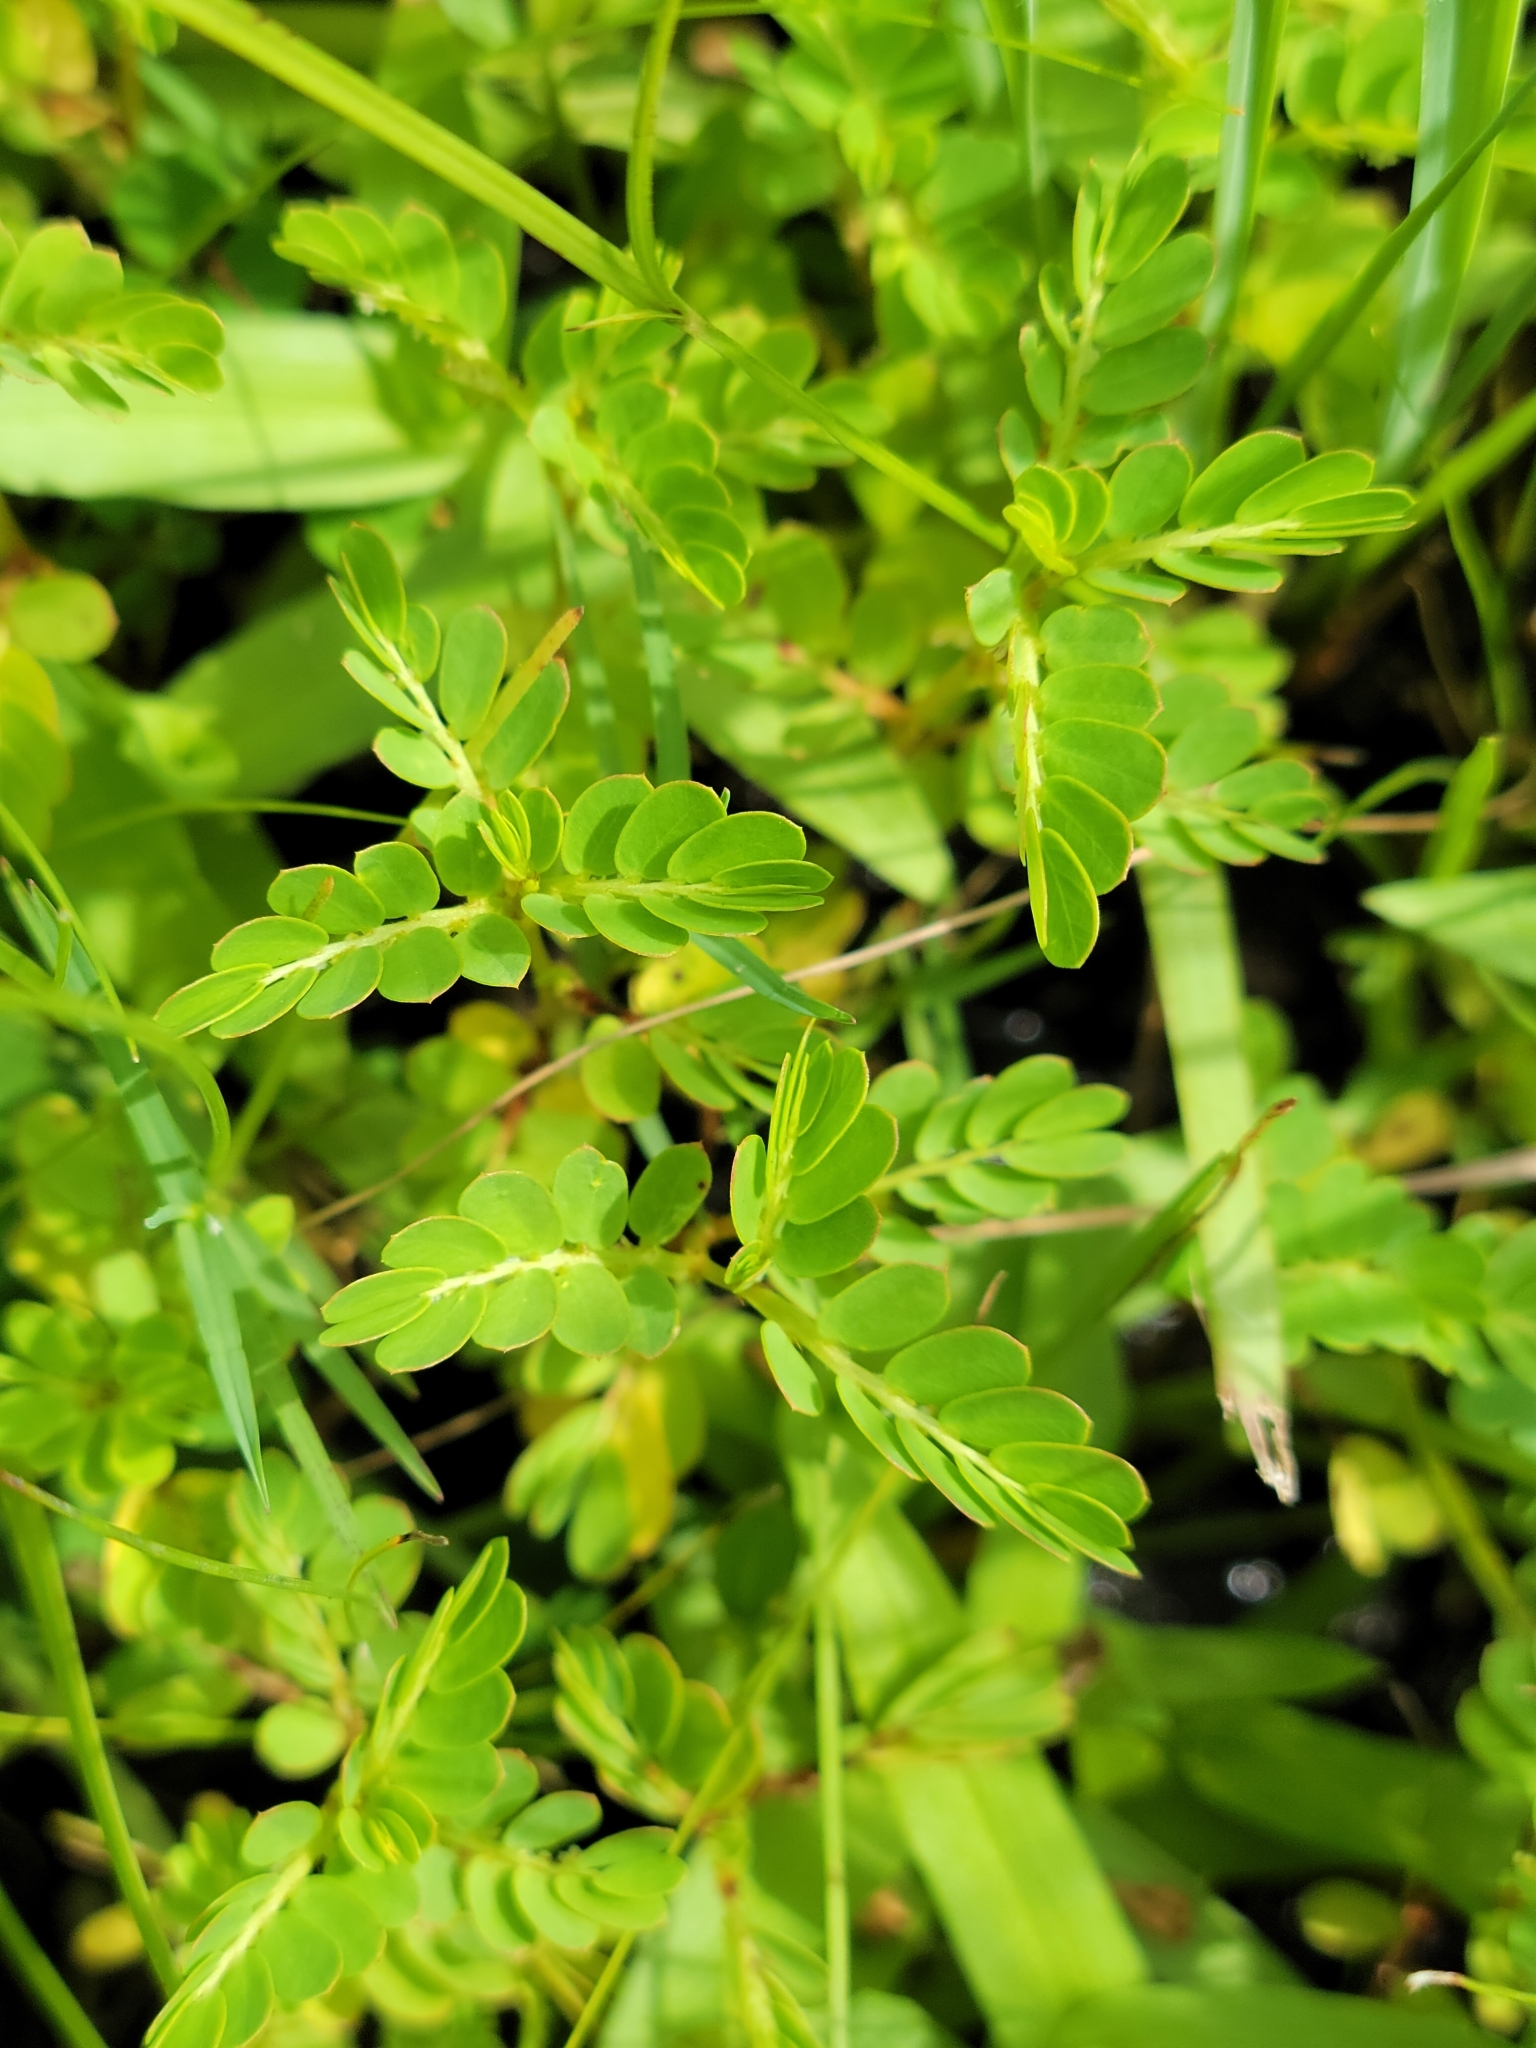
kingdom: Plantae
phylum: Tracheophyta
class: Magnoliopsida
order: Malpighiales
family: Phyllanthaceae
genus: Phyllanthus
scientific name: Phyllanthus urinaria
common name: Chamber bitter
